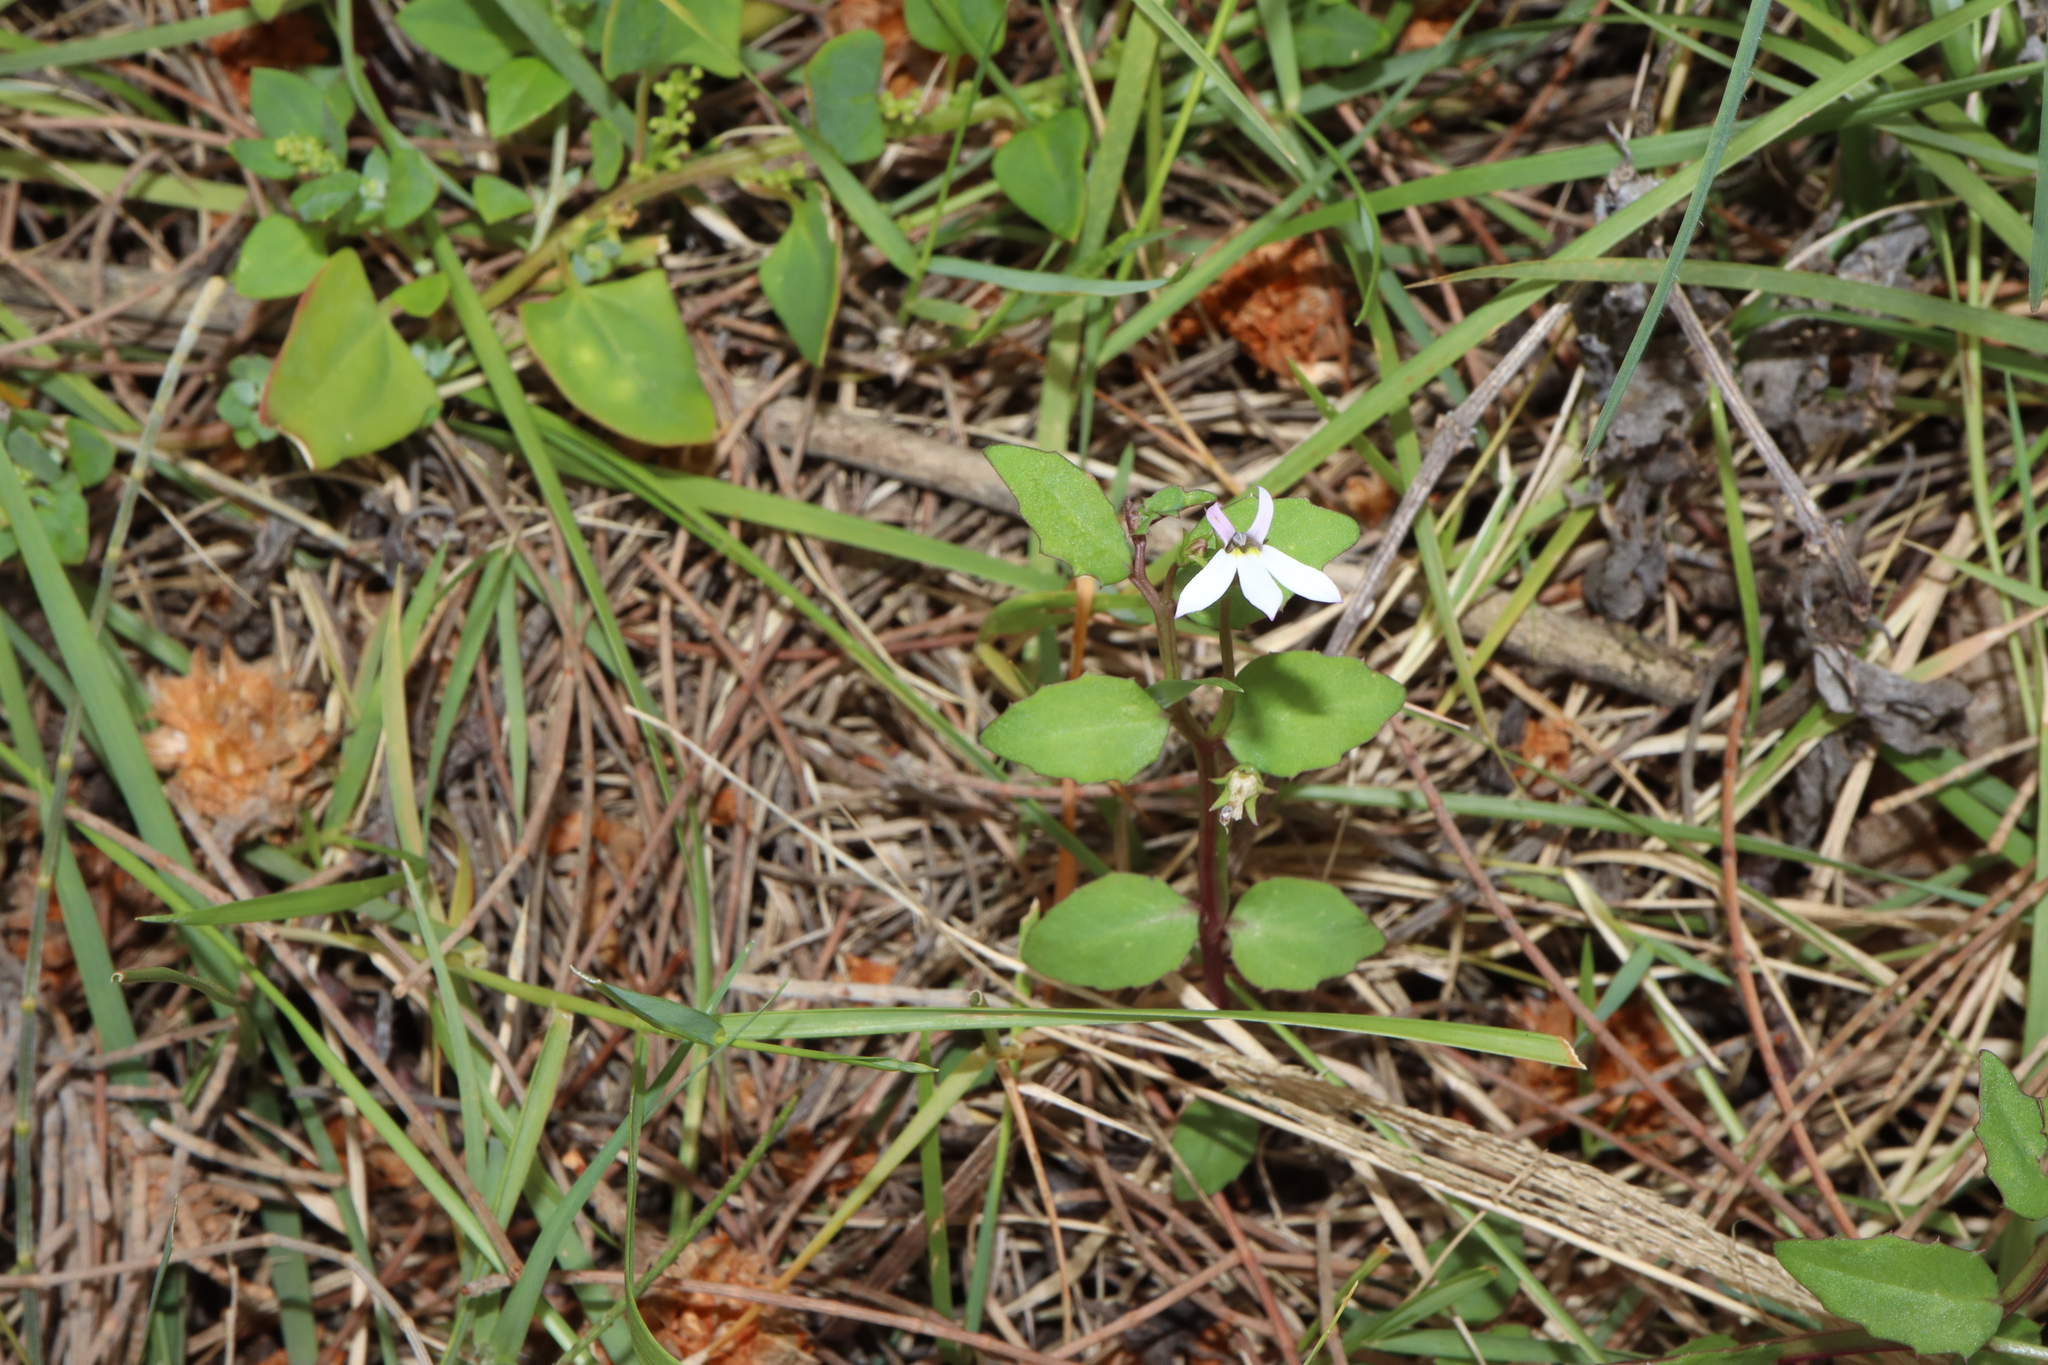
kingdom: Plantae
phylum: Tracheophyta
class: Magnoliopsida
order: Asterales
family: Campanulaceae
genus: Lobelia
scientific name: Lobelia purpurascens
